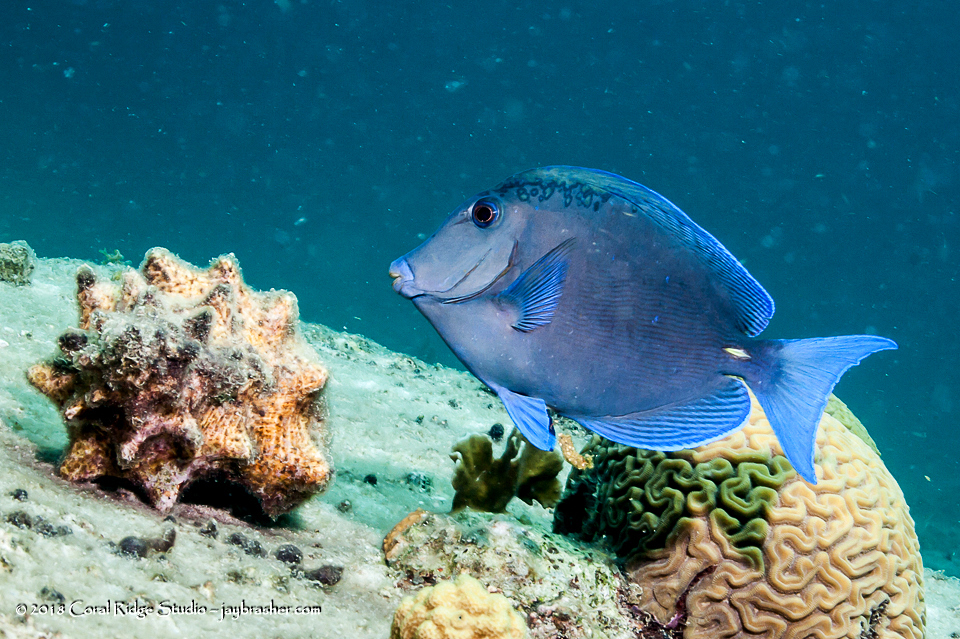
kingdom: Animalia
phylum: Chordata
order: Perciformes
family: Acanthuridae
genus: Acanthurus
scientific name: Acanthurus coeruleus
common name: Blue tang
